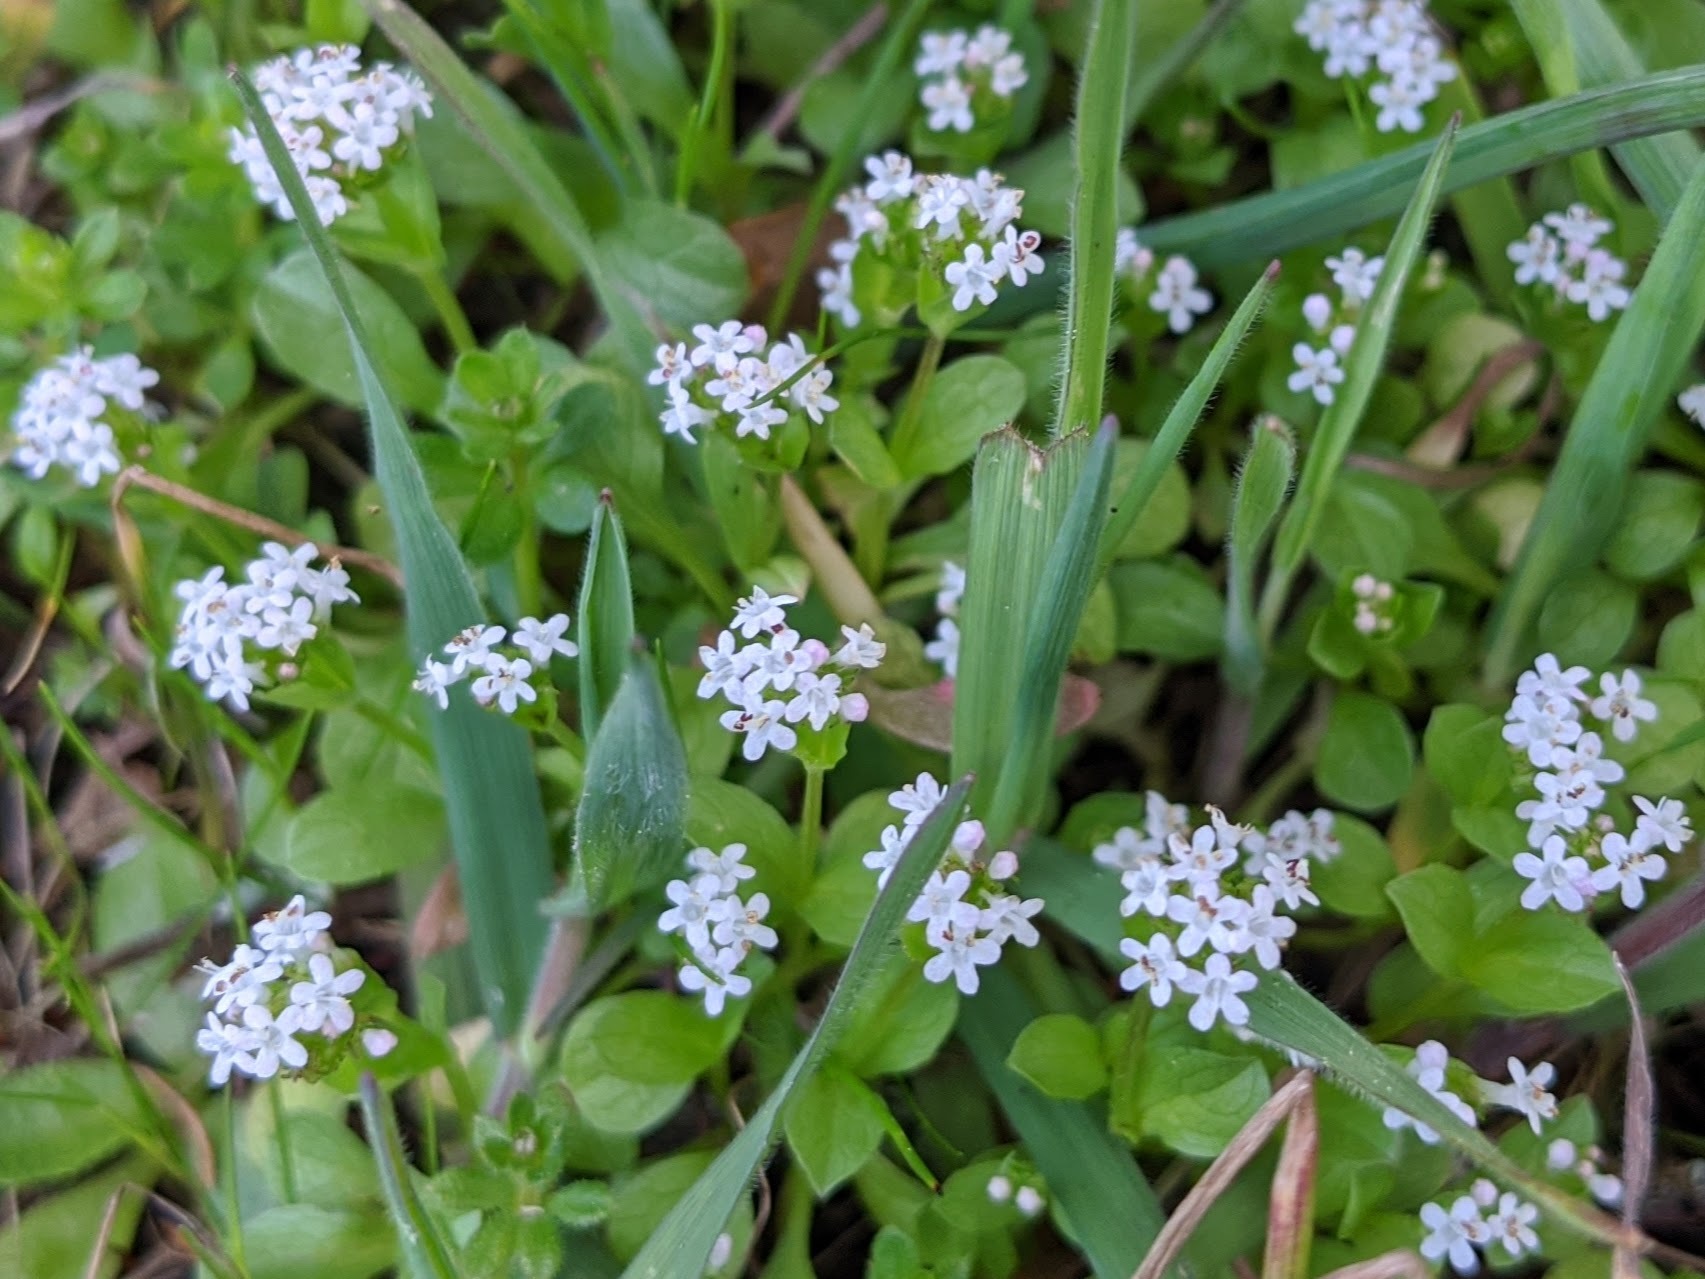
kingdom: Plantae
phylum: Tracheophyta
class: Magnoliopsida
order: Dipsacales
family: Caprifoliaceae
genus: Valerianella
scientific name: Valerianella locusta
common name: Common cornsalad
